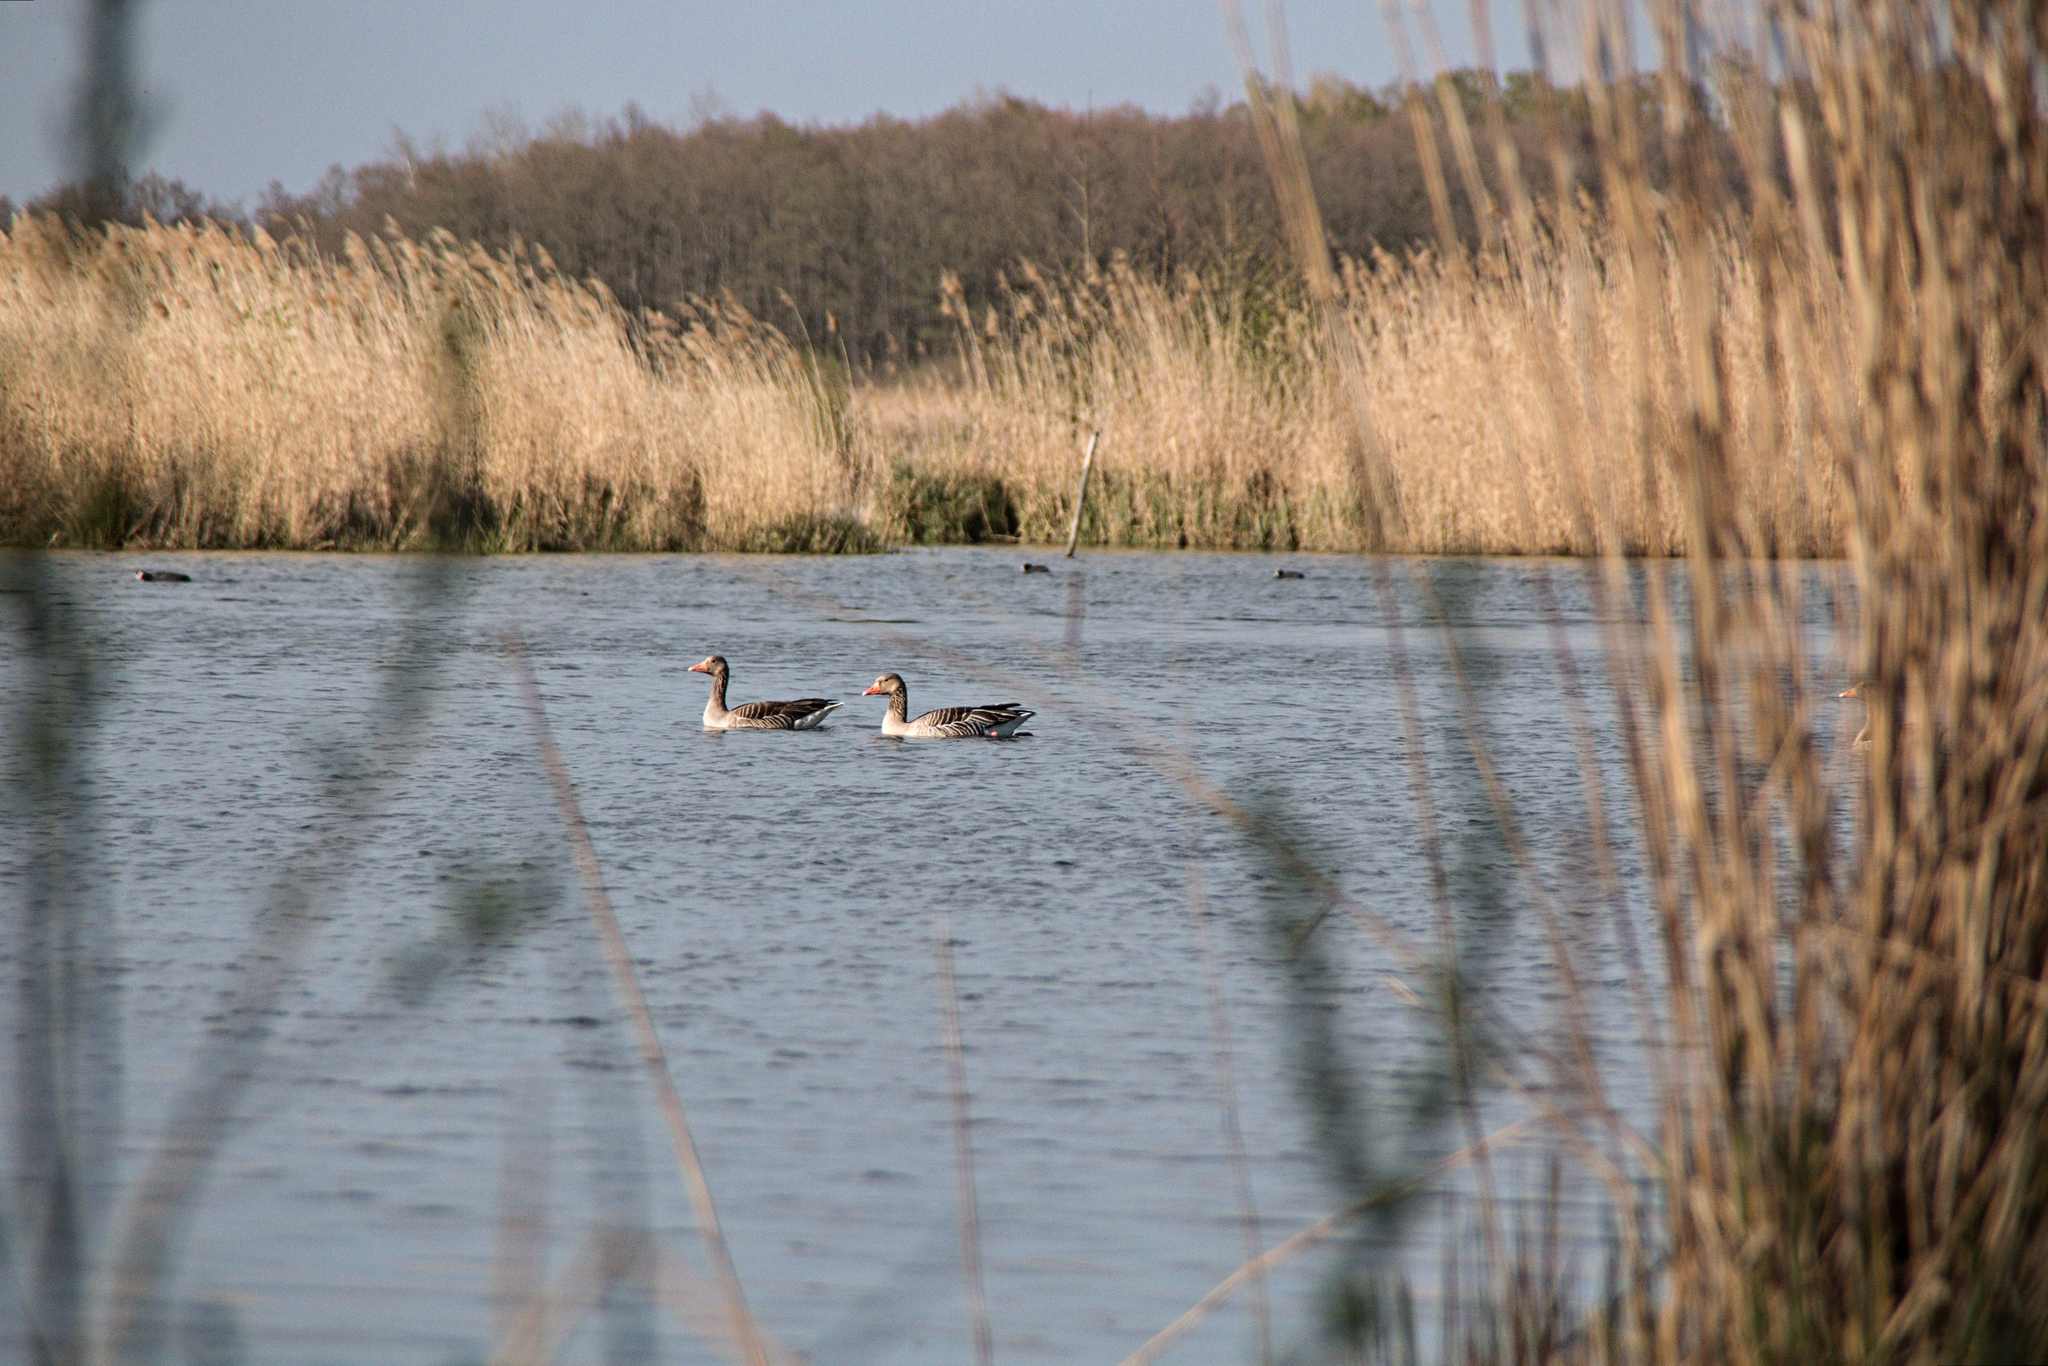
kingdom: Animalia
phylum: Chordata
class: Aves
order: Anseriformes
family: Anatidae
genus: Anser
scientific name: Anser anser
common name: Greylag goose
